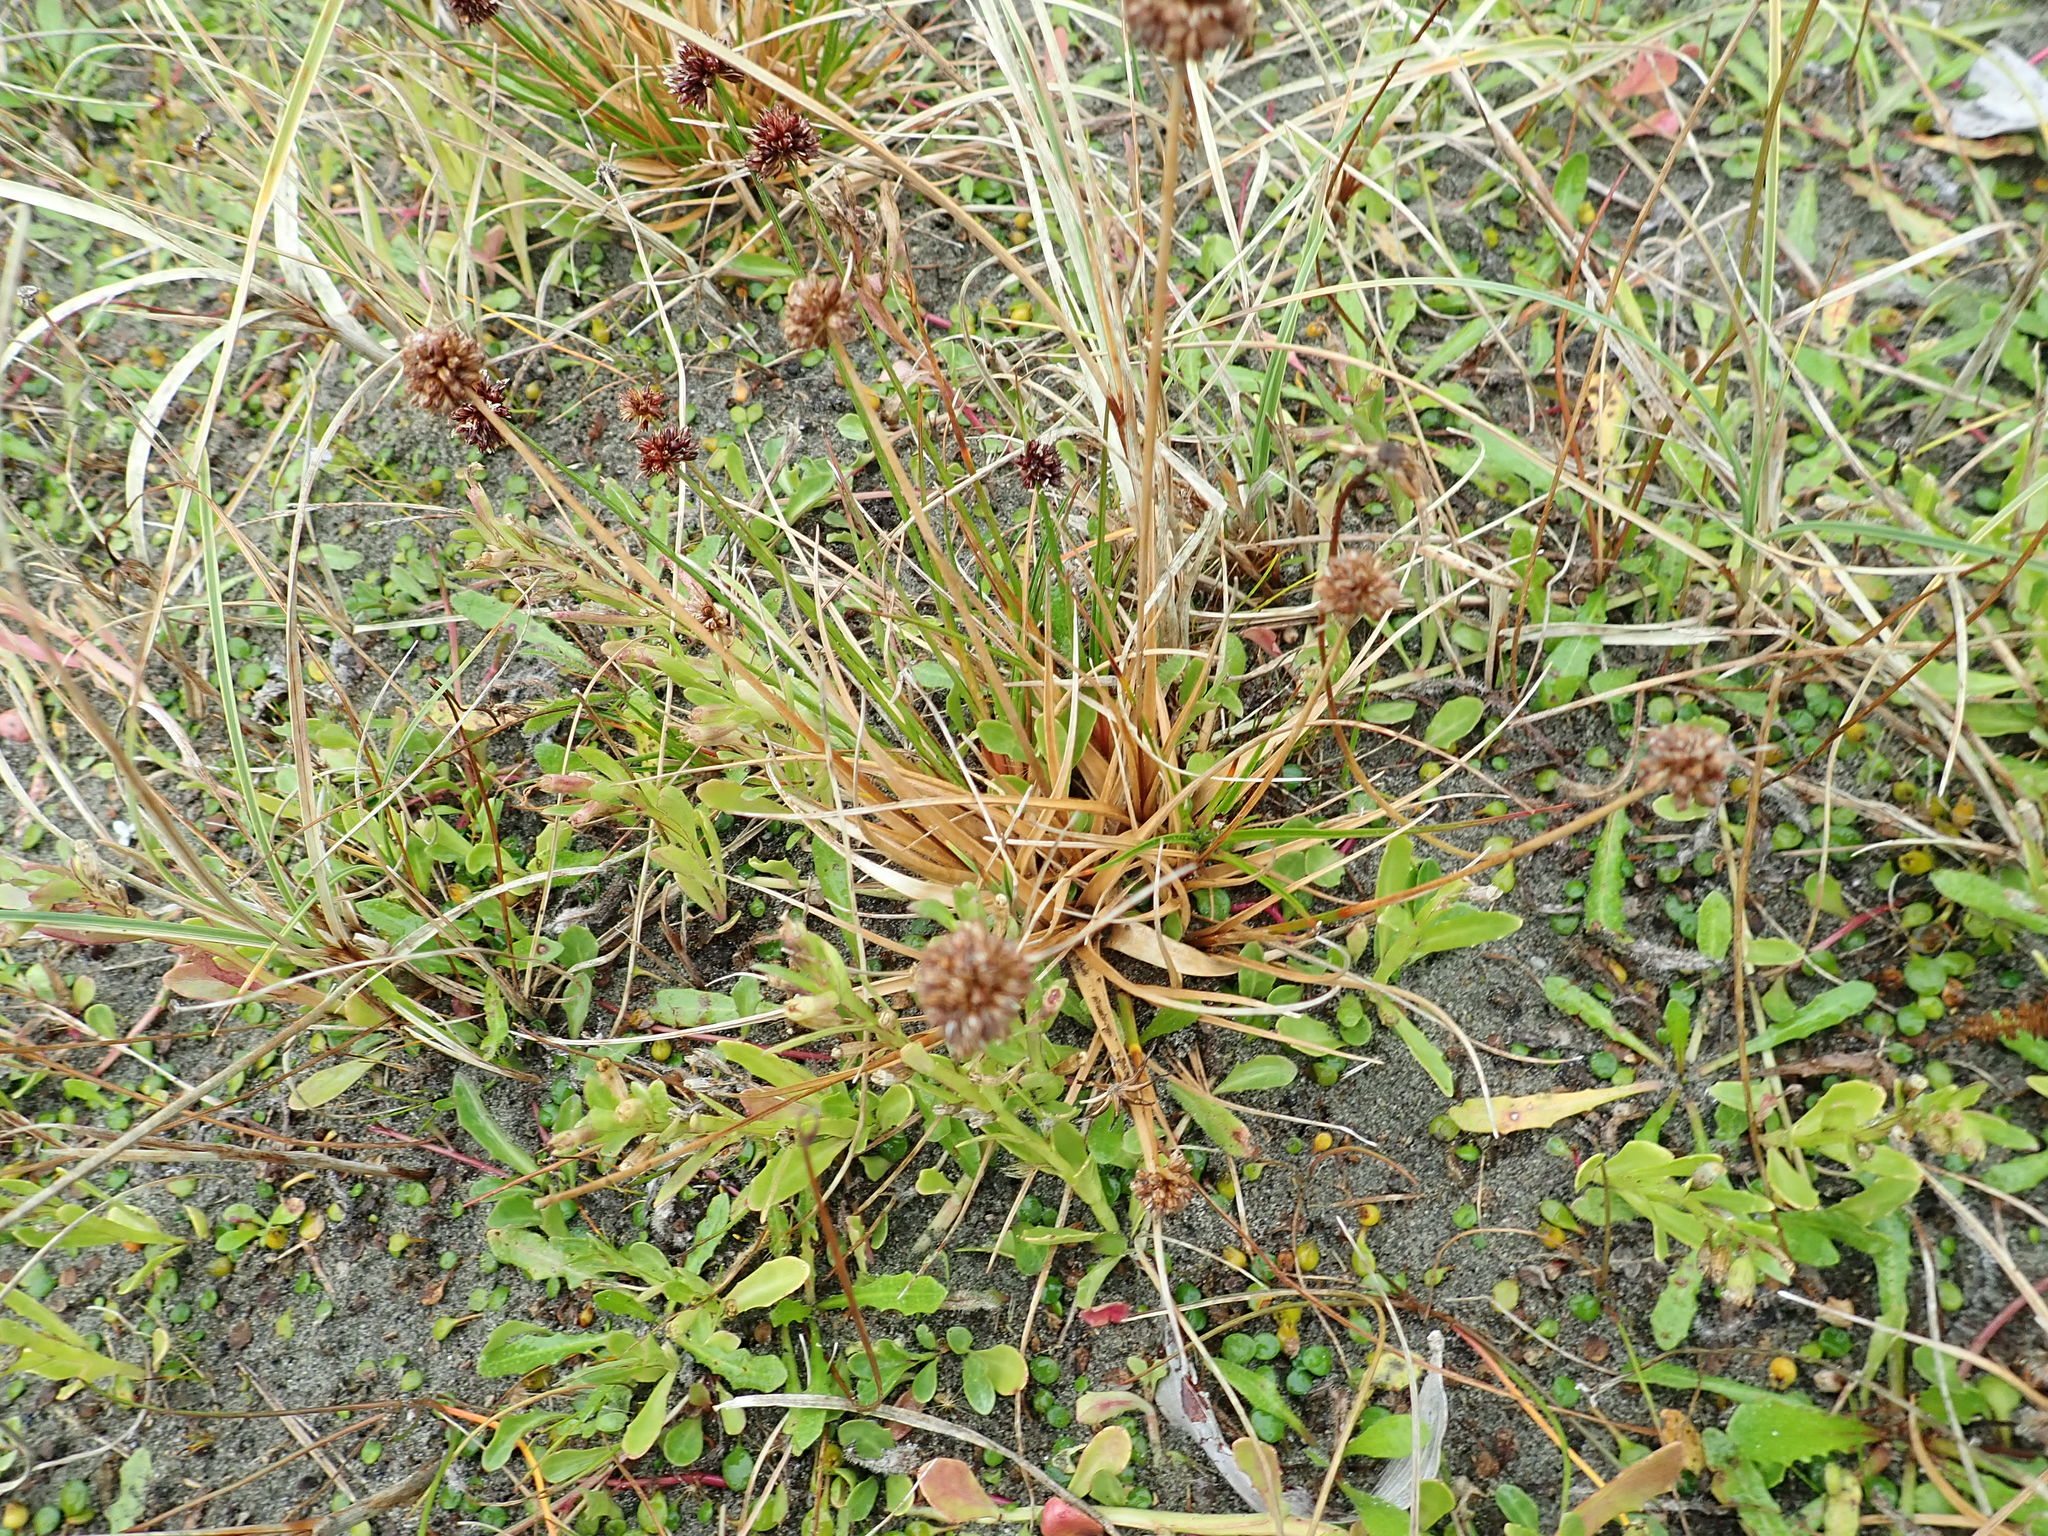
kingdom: Plantae
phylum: Tracheophyta
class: Liliopsida
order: Poales
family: Juncaceae
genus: Juncus
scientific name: Juncus caespiticius
